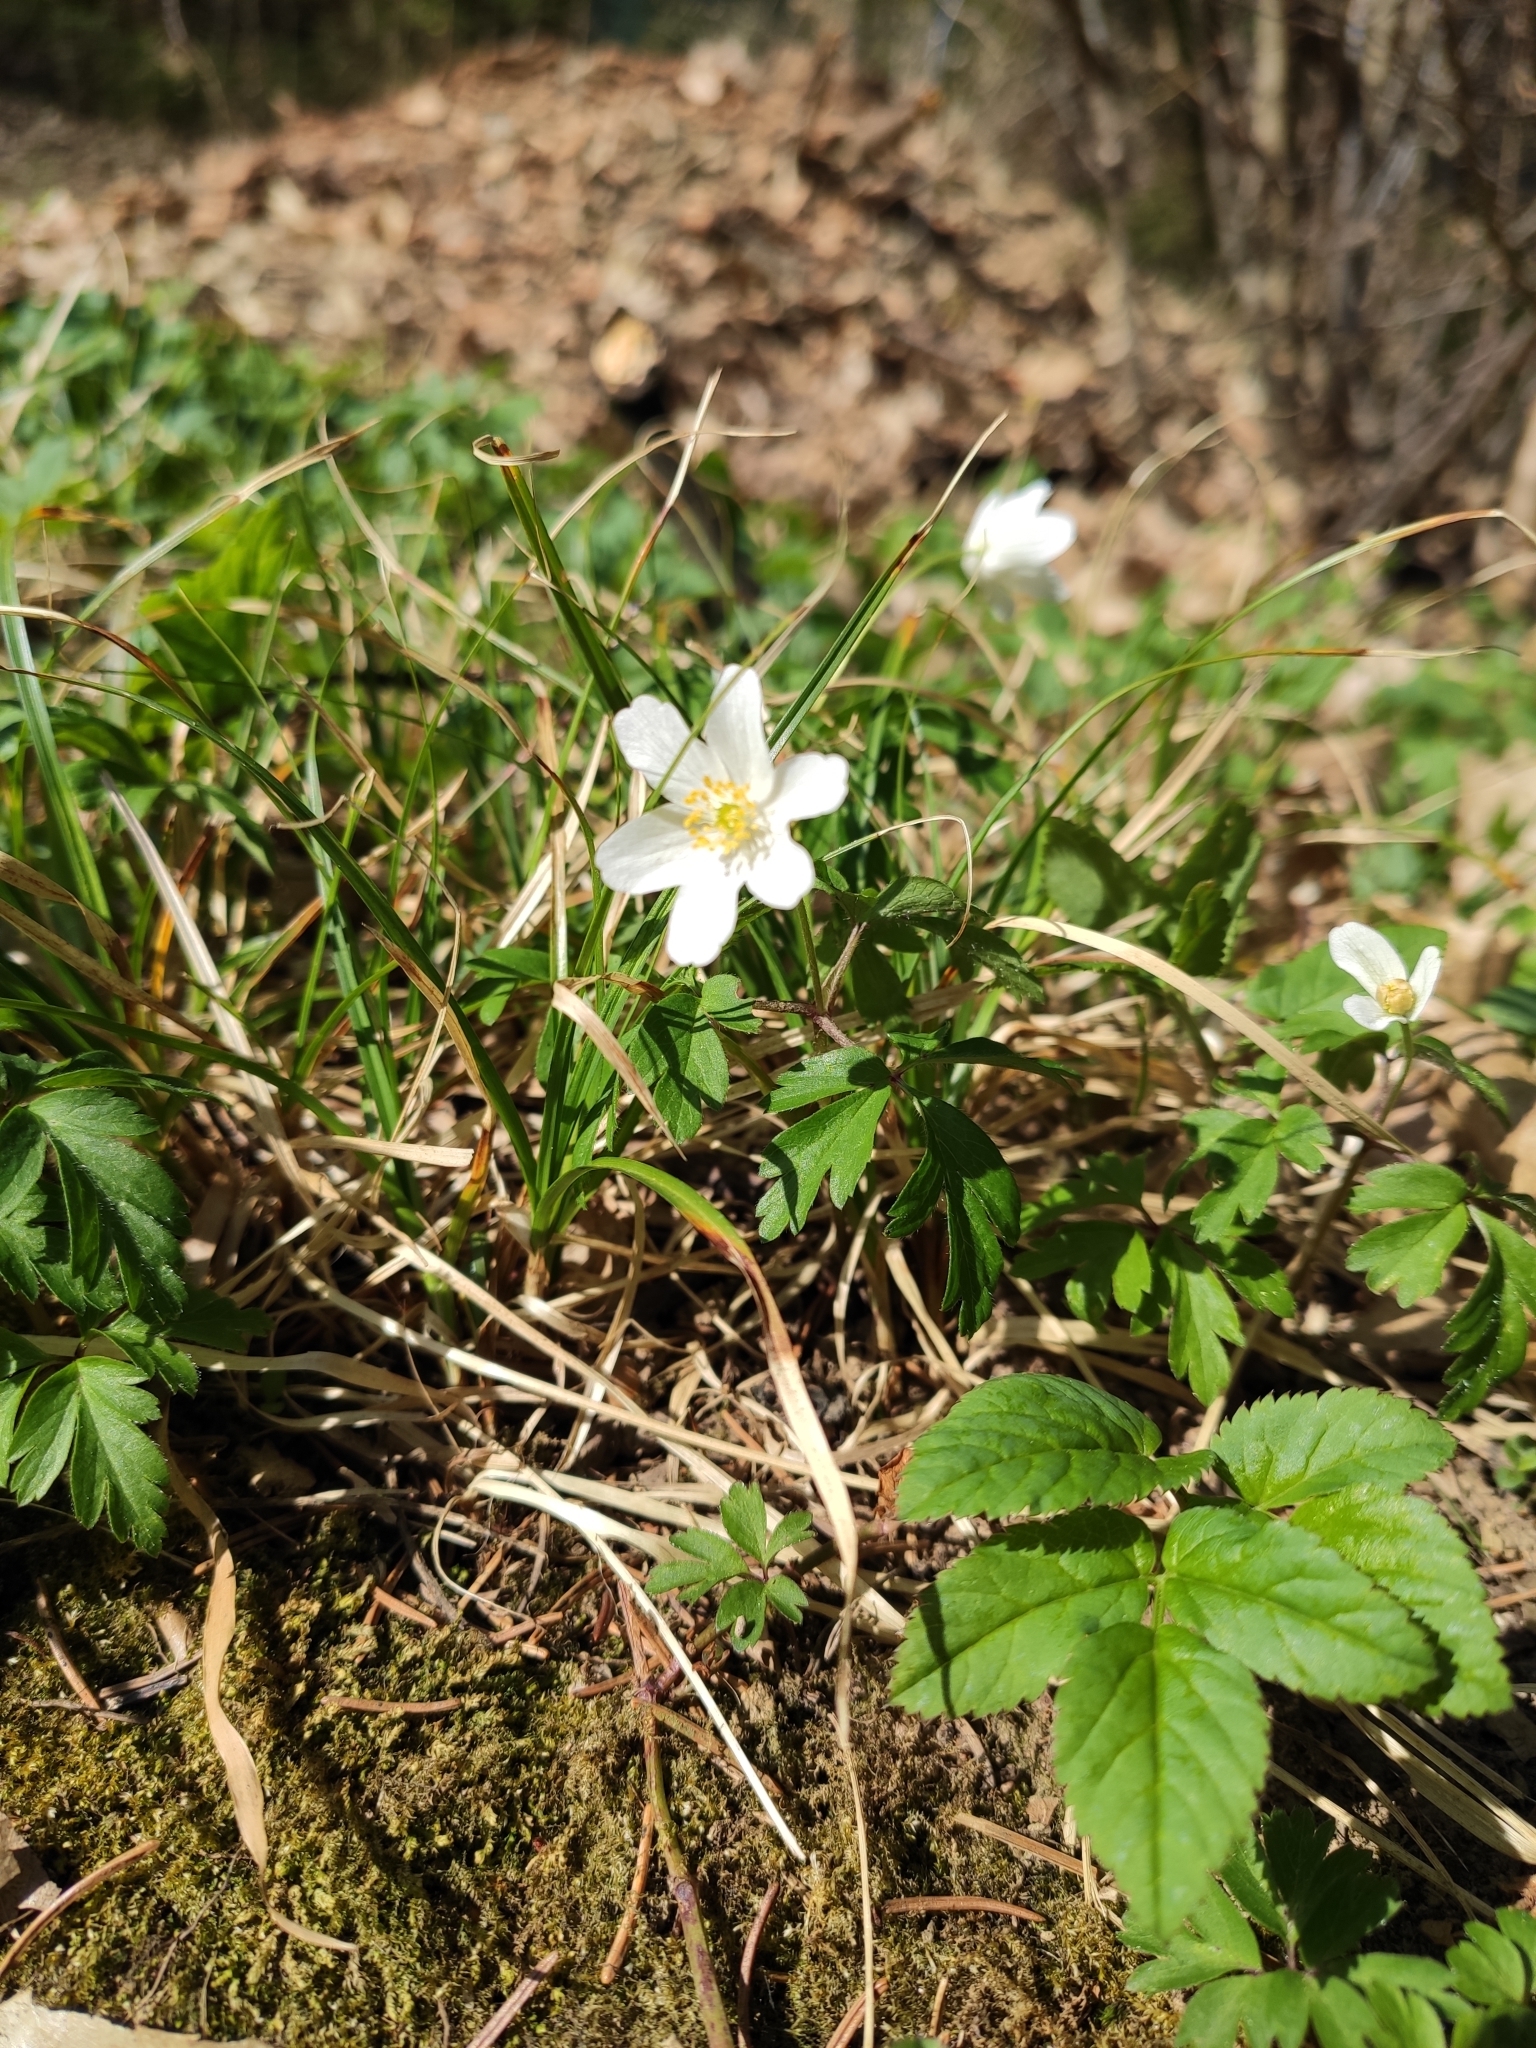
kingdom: Plantae
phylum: Tracheophyta
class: Magnoliopsida
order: Ranunculales
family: Ranunculaceae
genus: Anemone
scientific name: Anemone nemorosa
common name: Wood anemone
